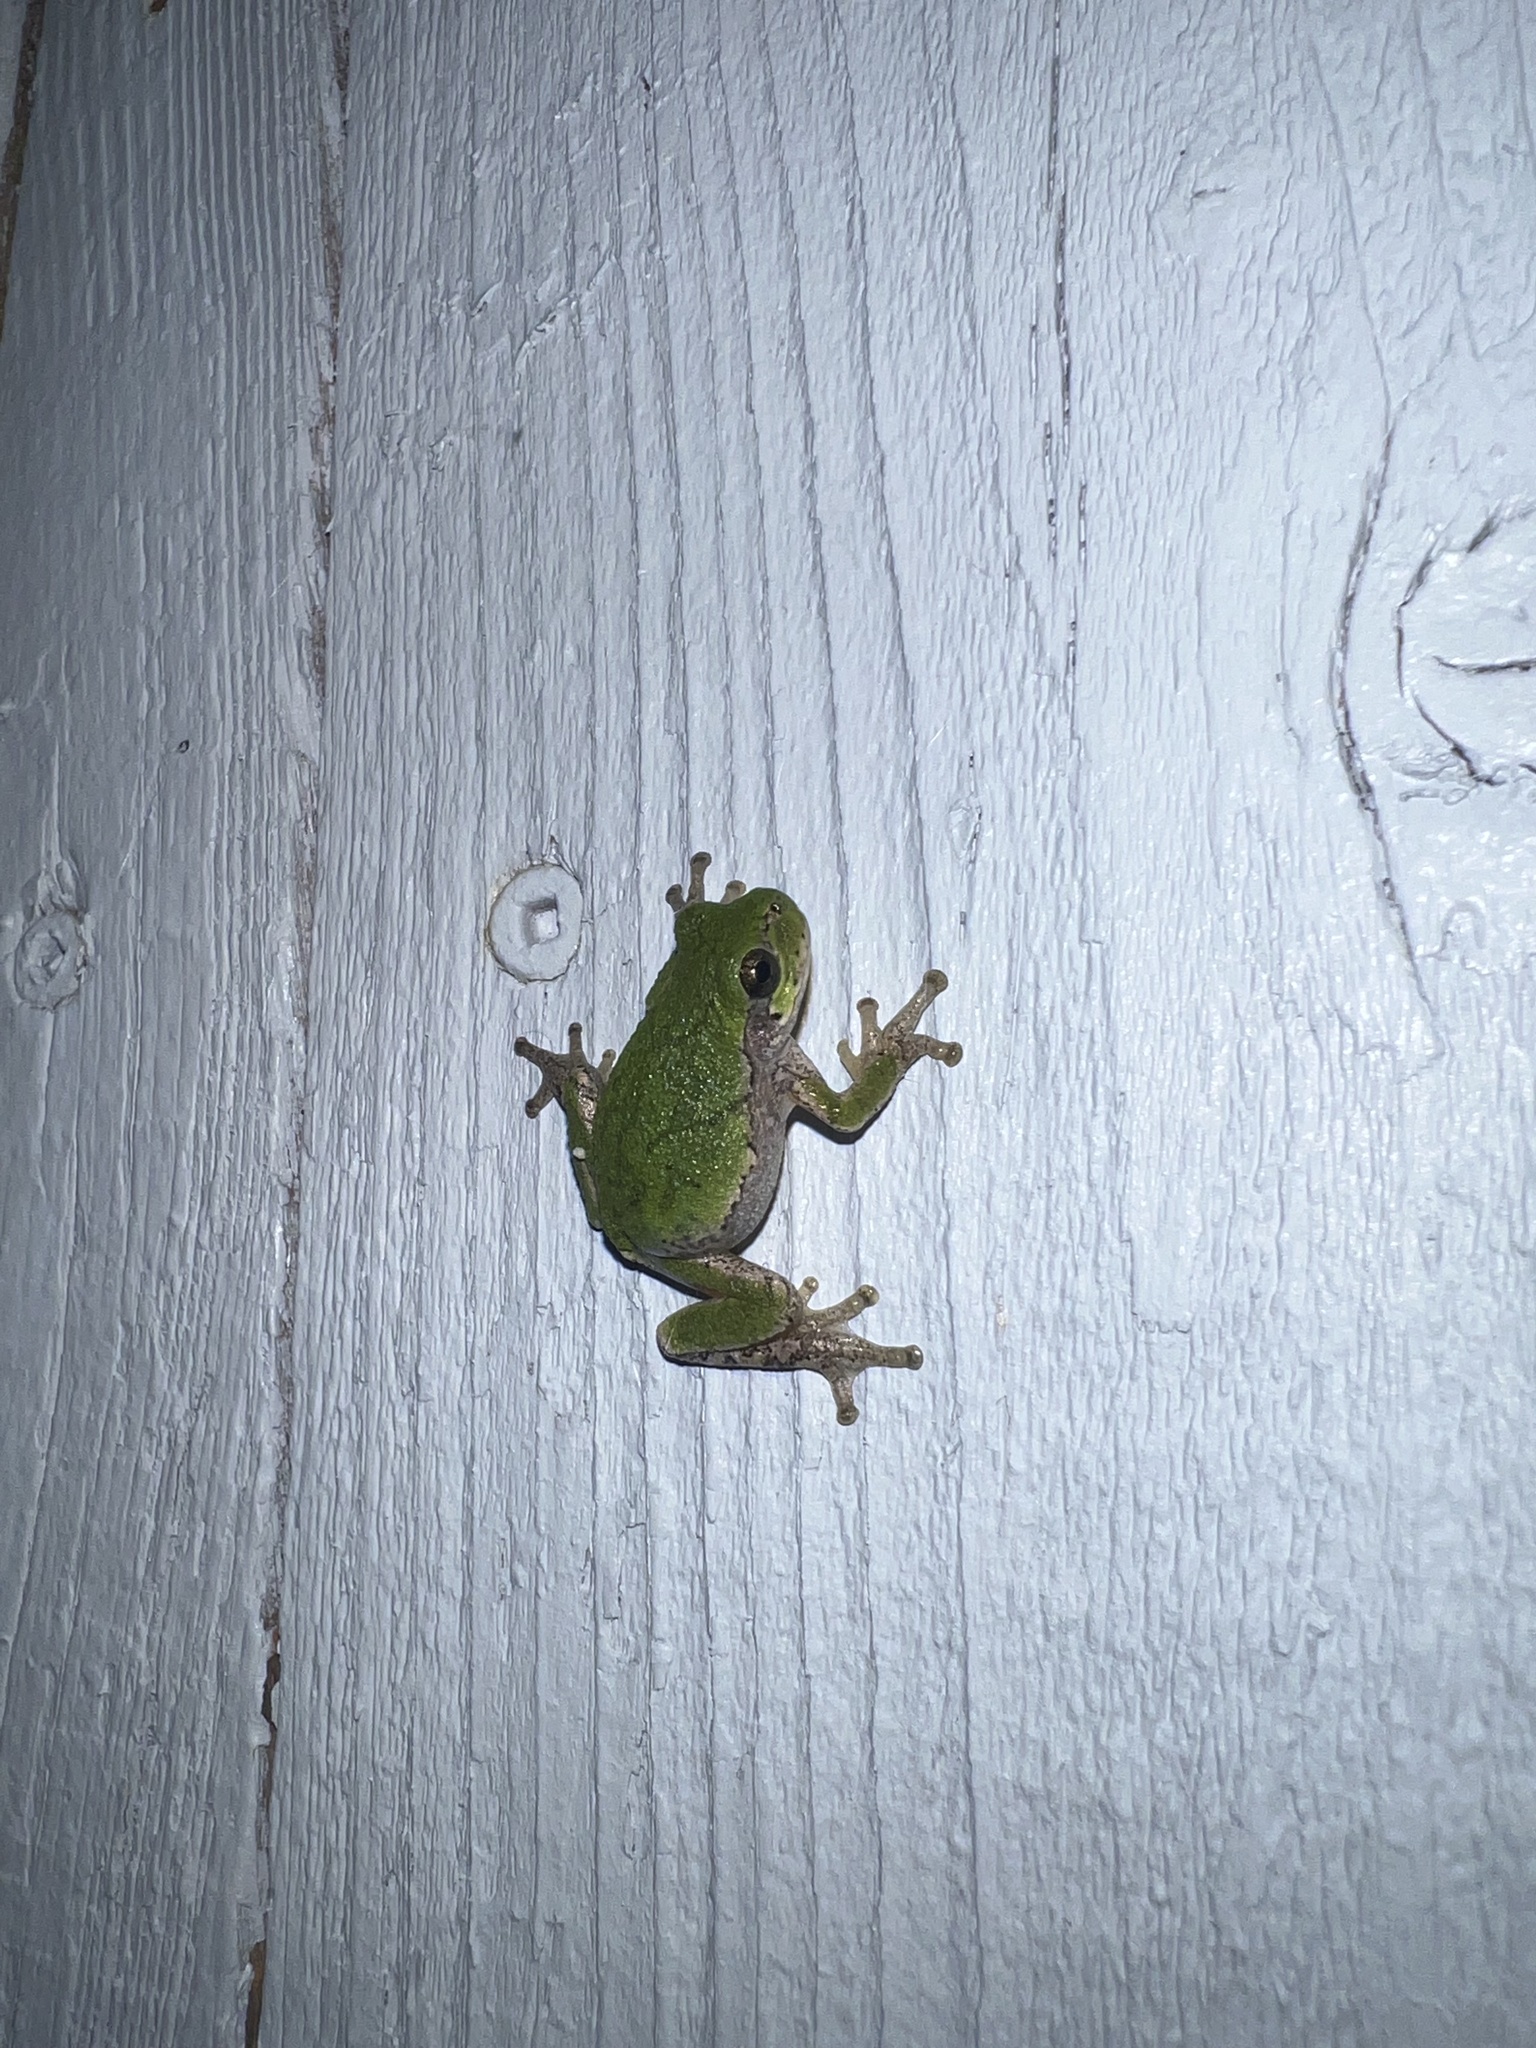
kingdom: Animalia
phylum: Chordata
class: Amphibia
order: Anura
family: Hylidae
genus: Dryophytes
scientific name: Dryophytes versicolor
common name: Gray treefrog
